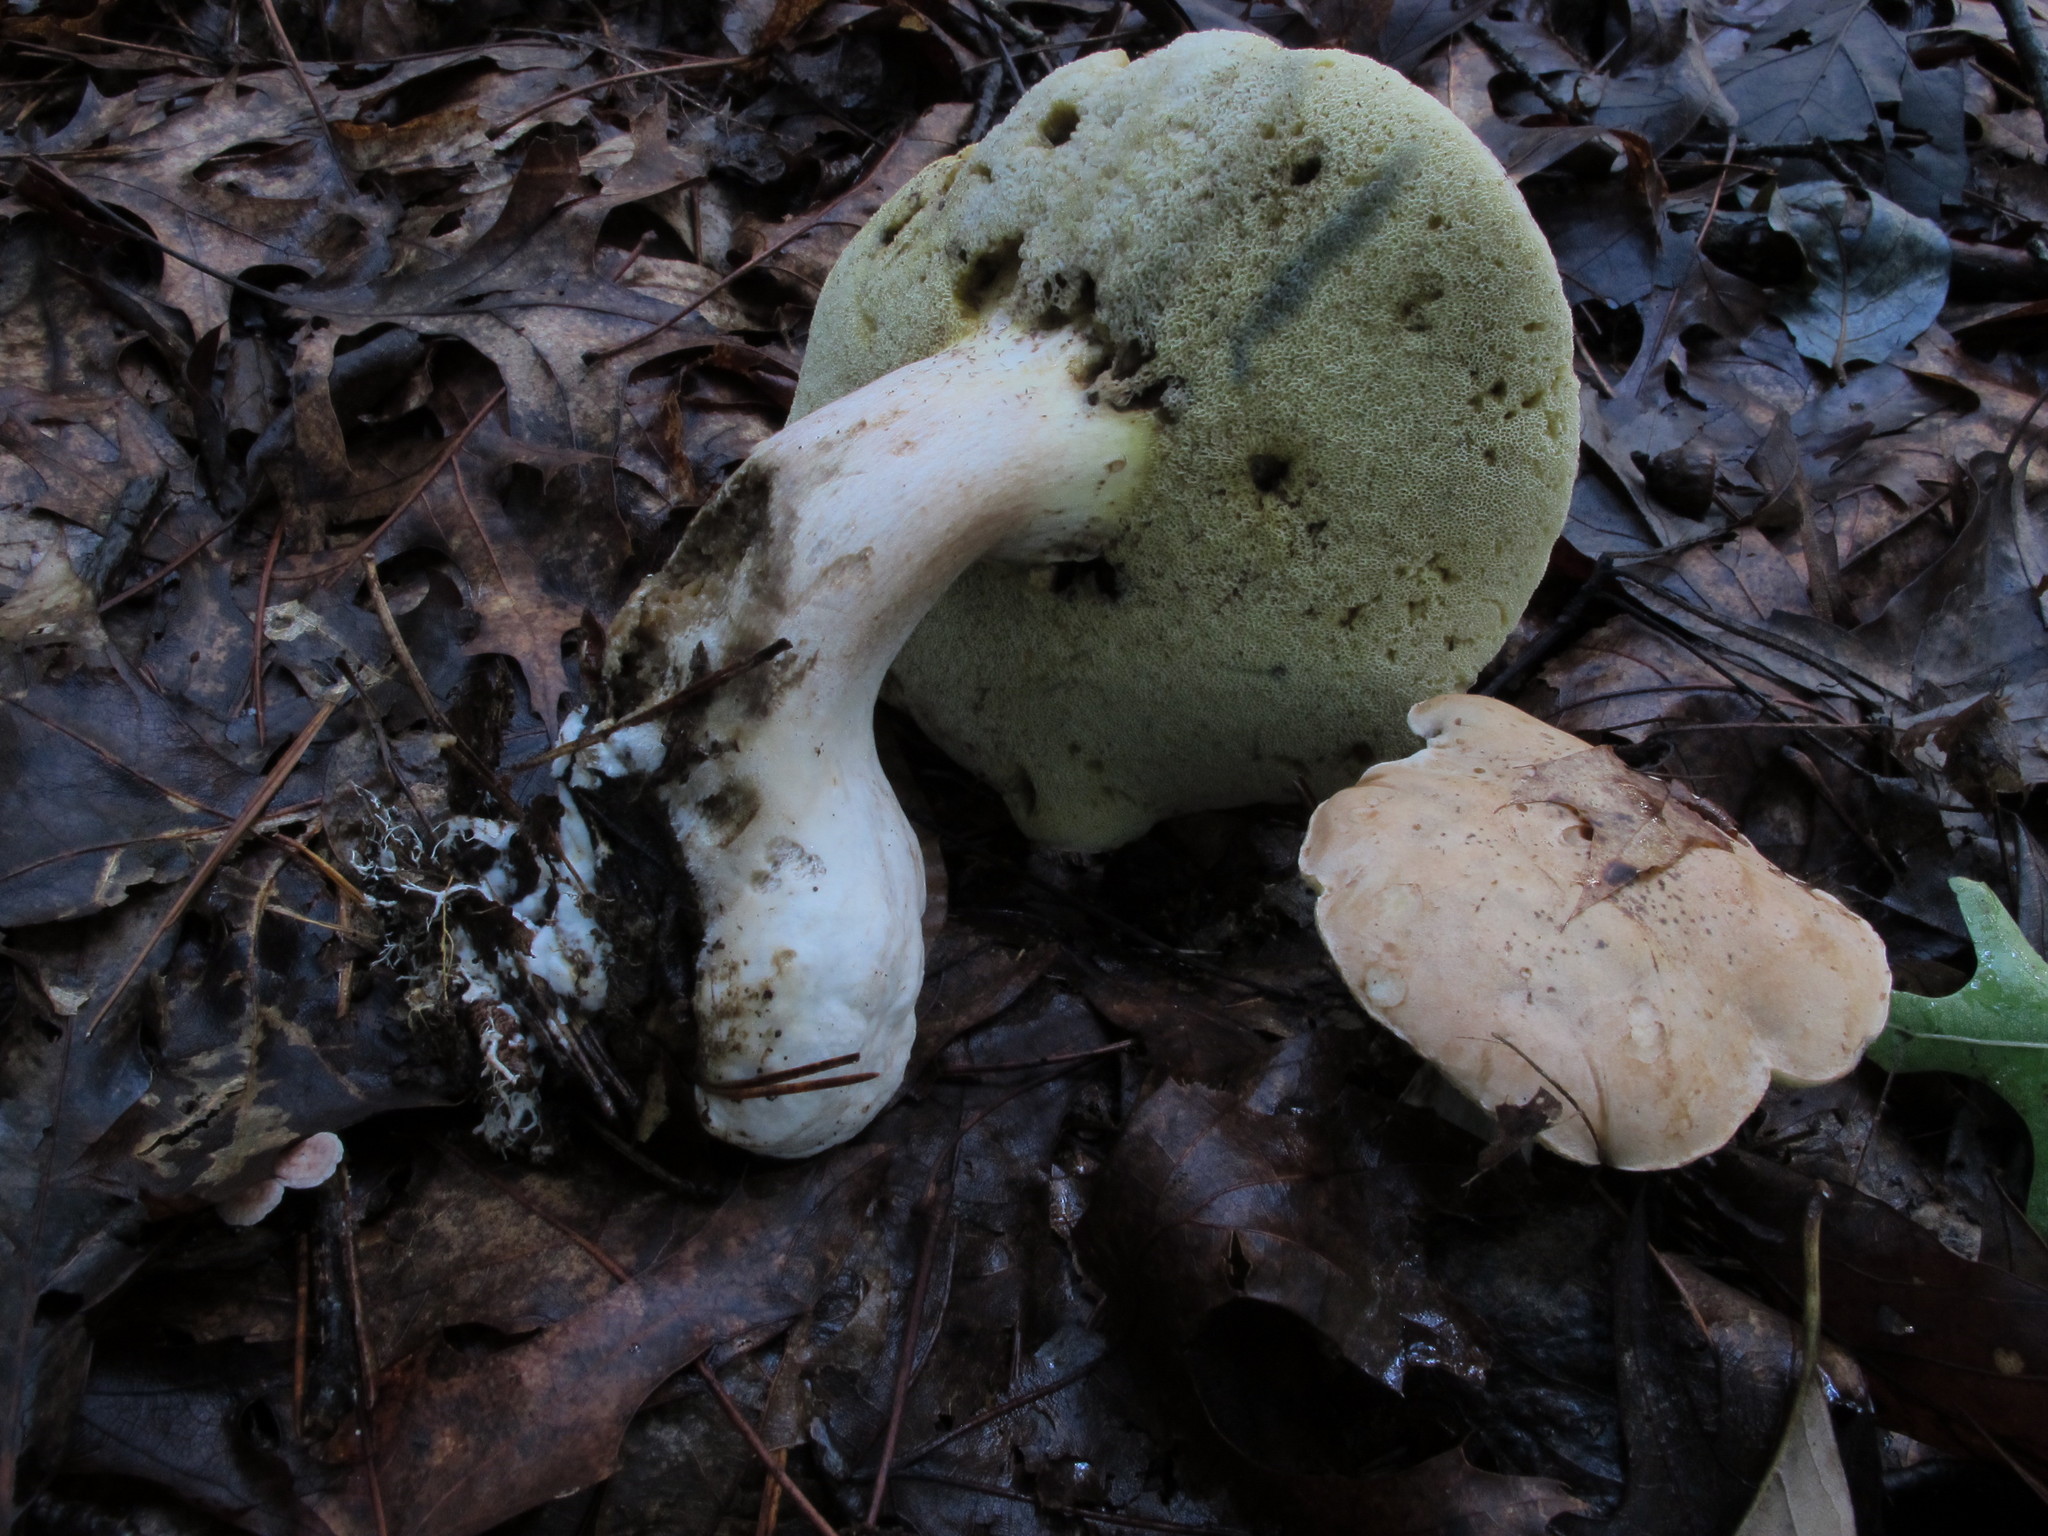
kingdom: Fungi
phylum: Basidiomycota
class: Agaricomycetes
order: Boletales
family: Boletaceae
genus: Imleria
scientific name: Imleria pallida
